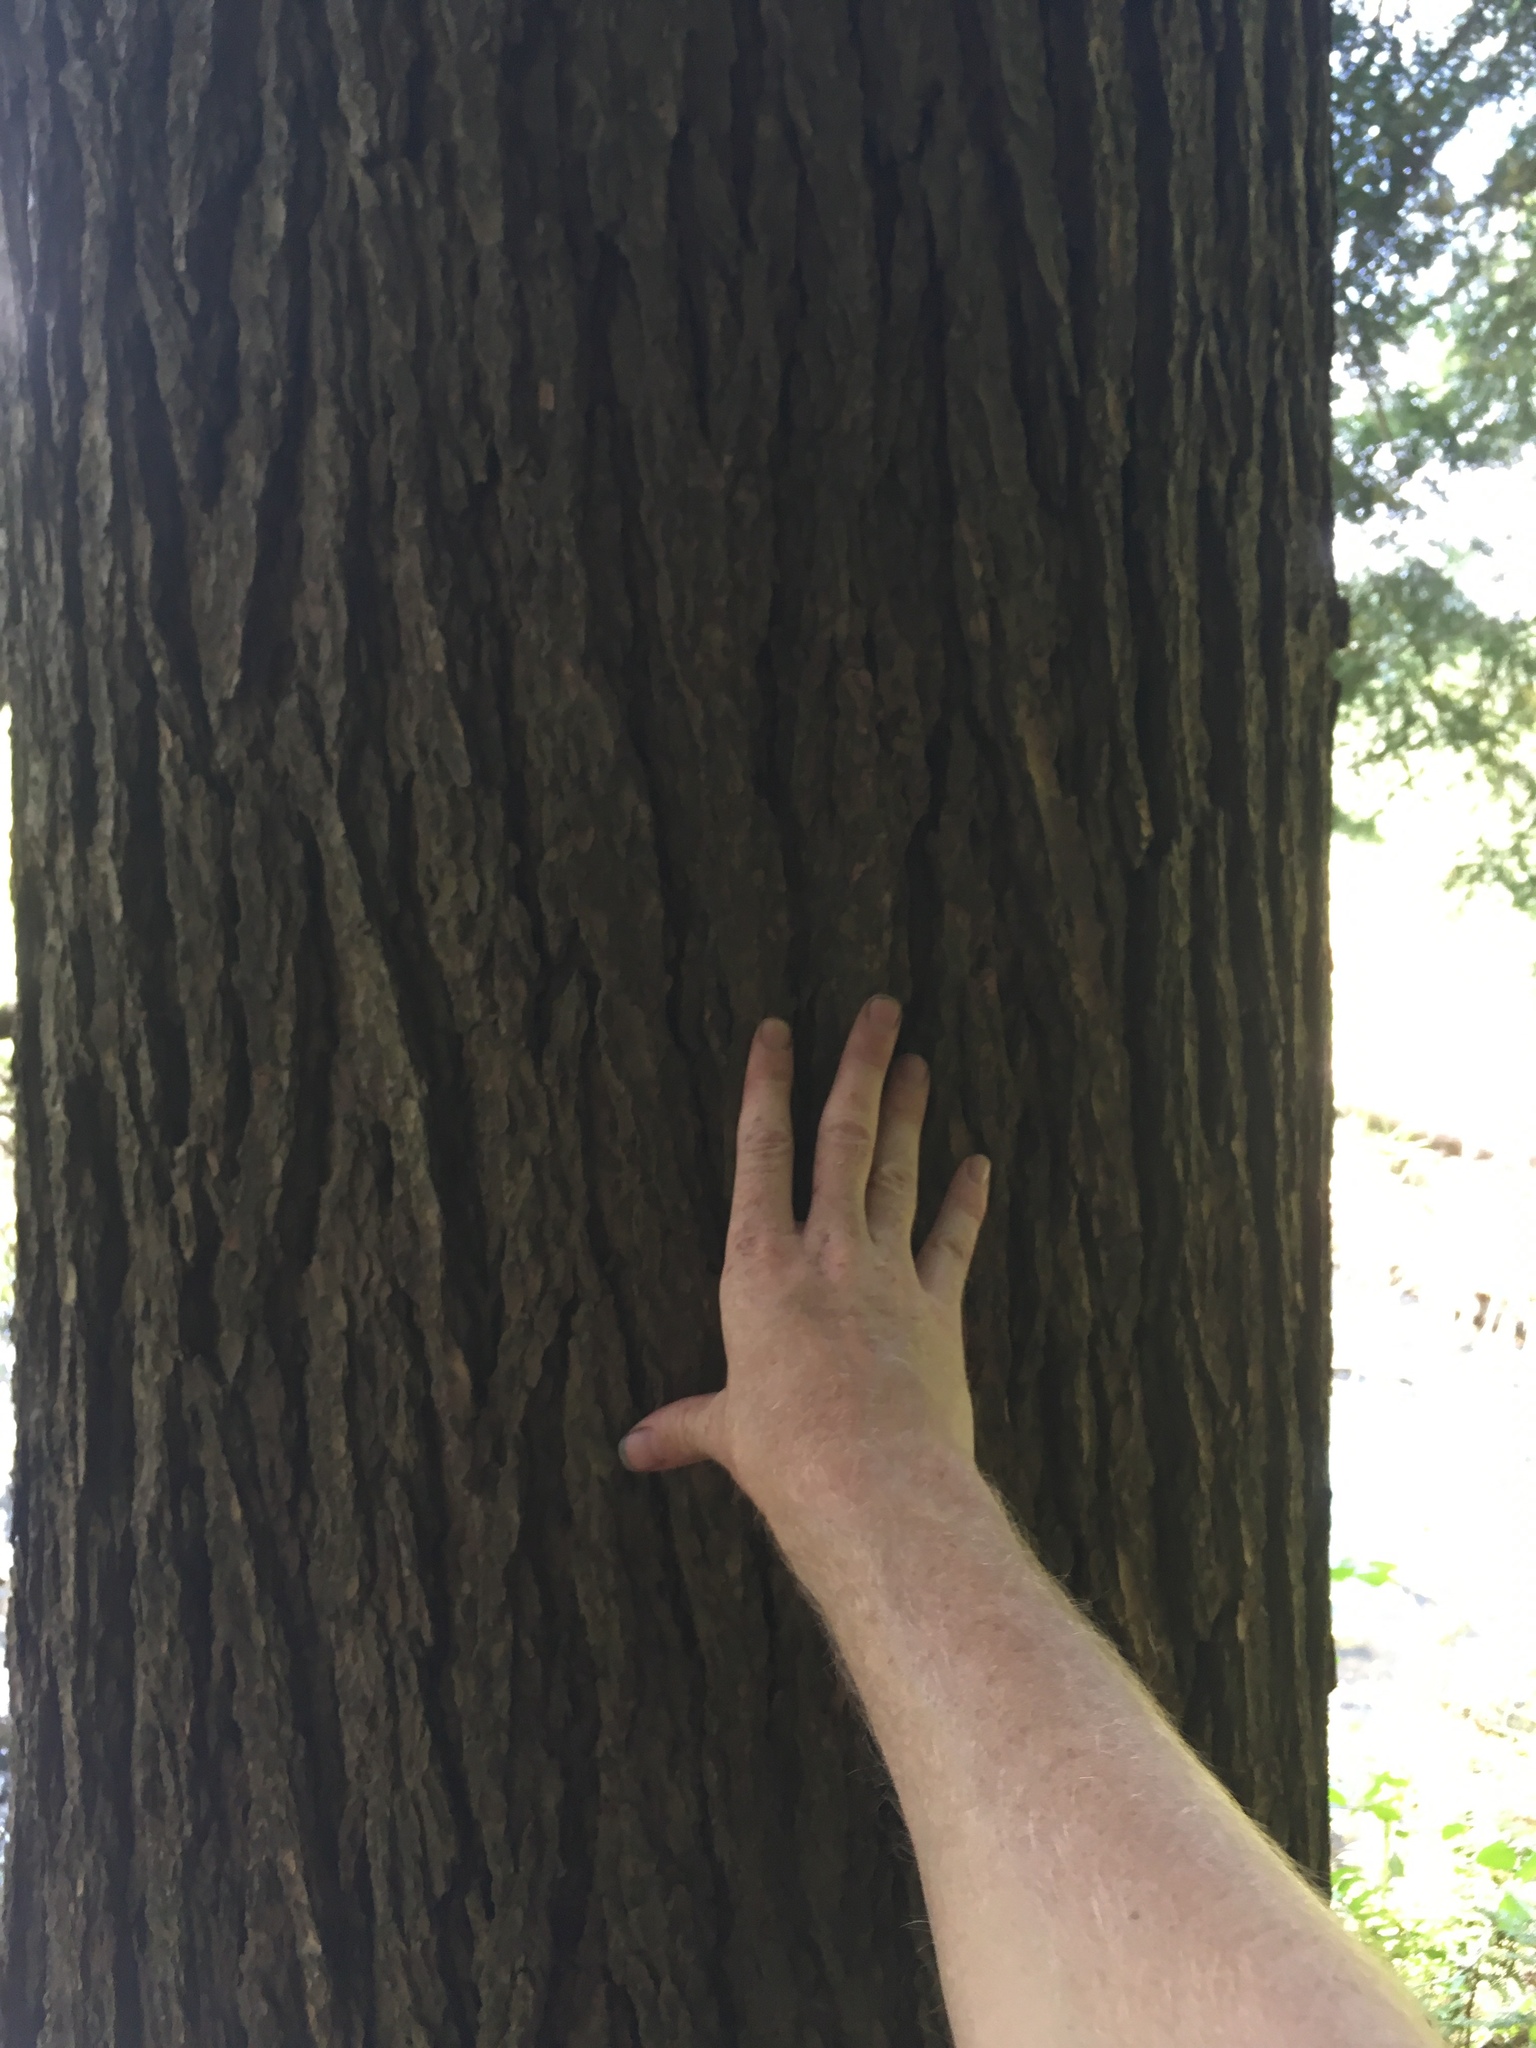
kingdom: Plantae
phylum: Tracheophyta
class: Pinopsida
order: Pinales
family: Pinaceae
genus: Tsuga
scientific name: Tsuga canadensis
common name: Eastern hemlock
